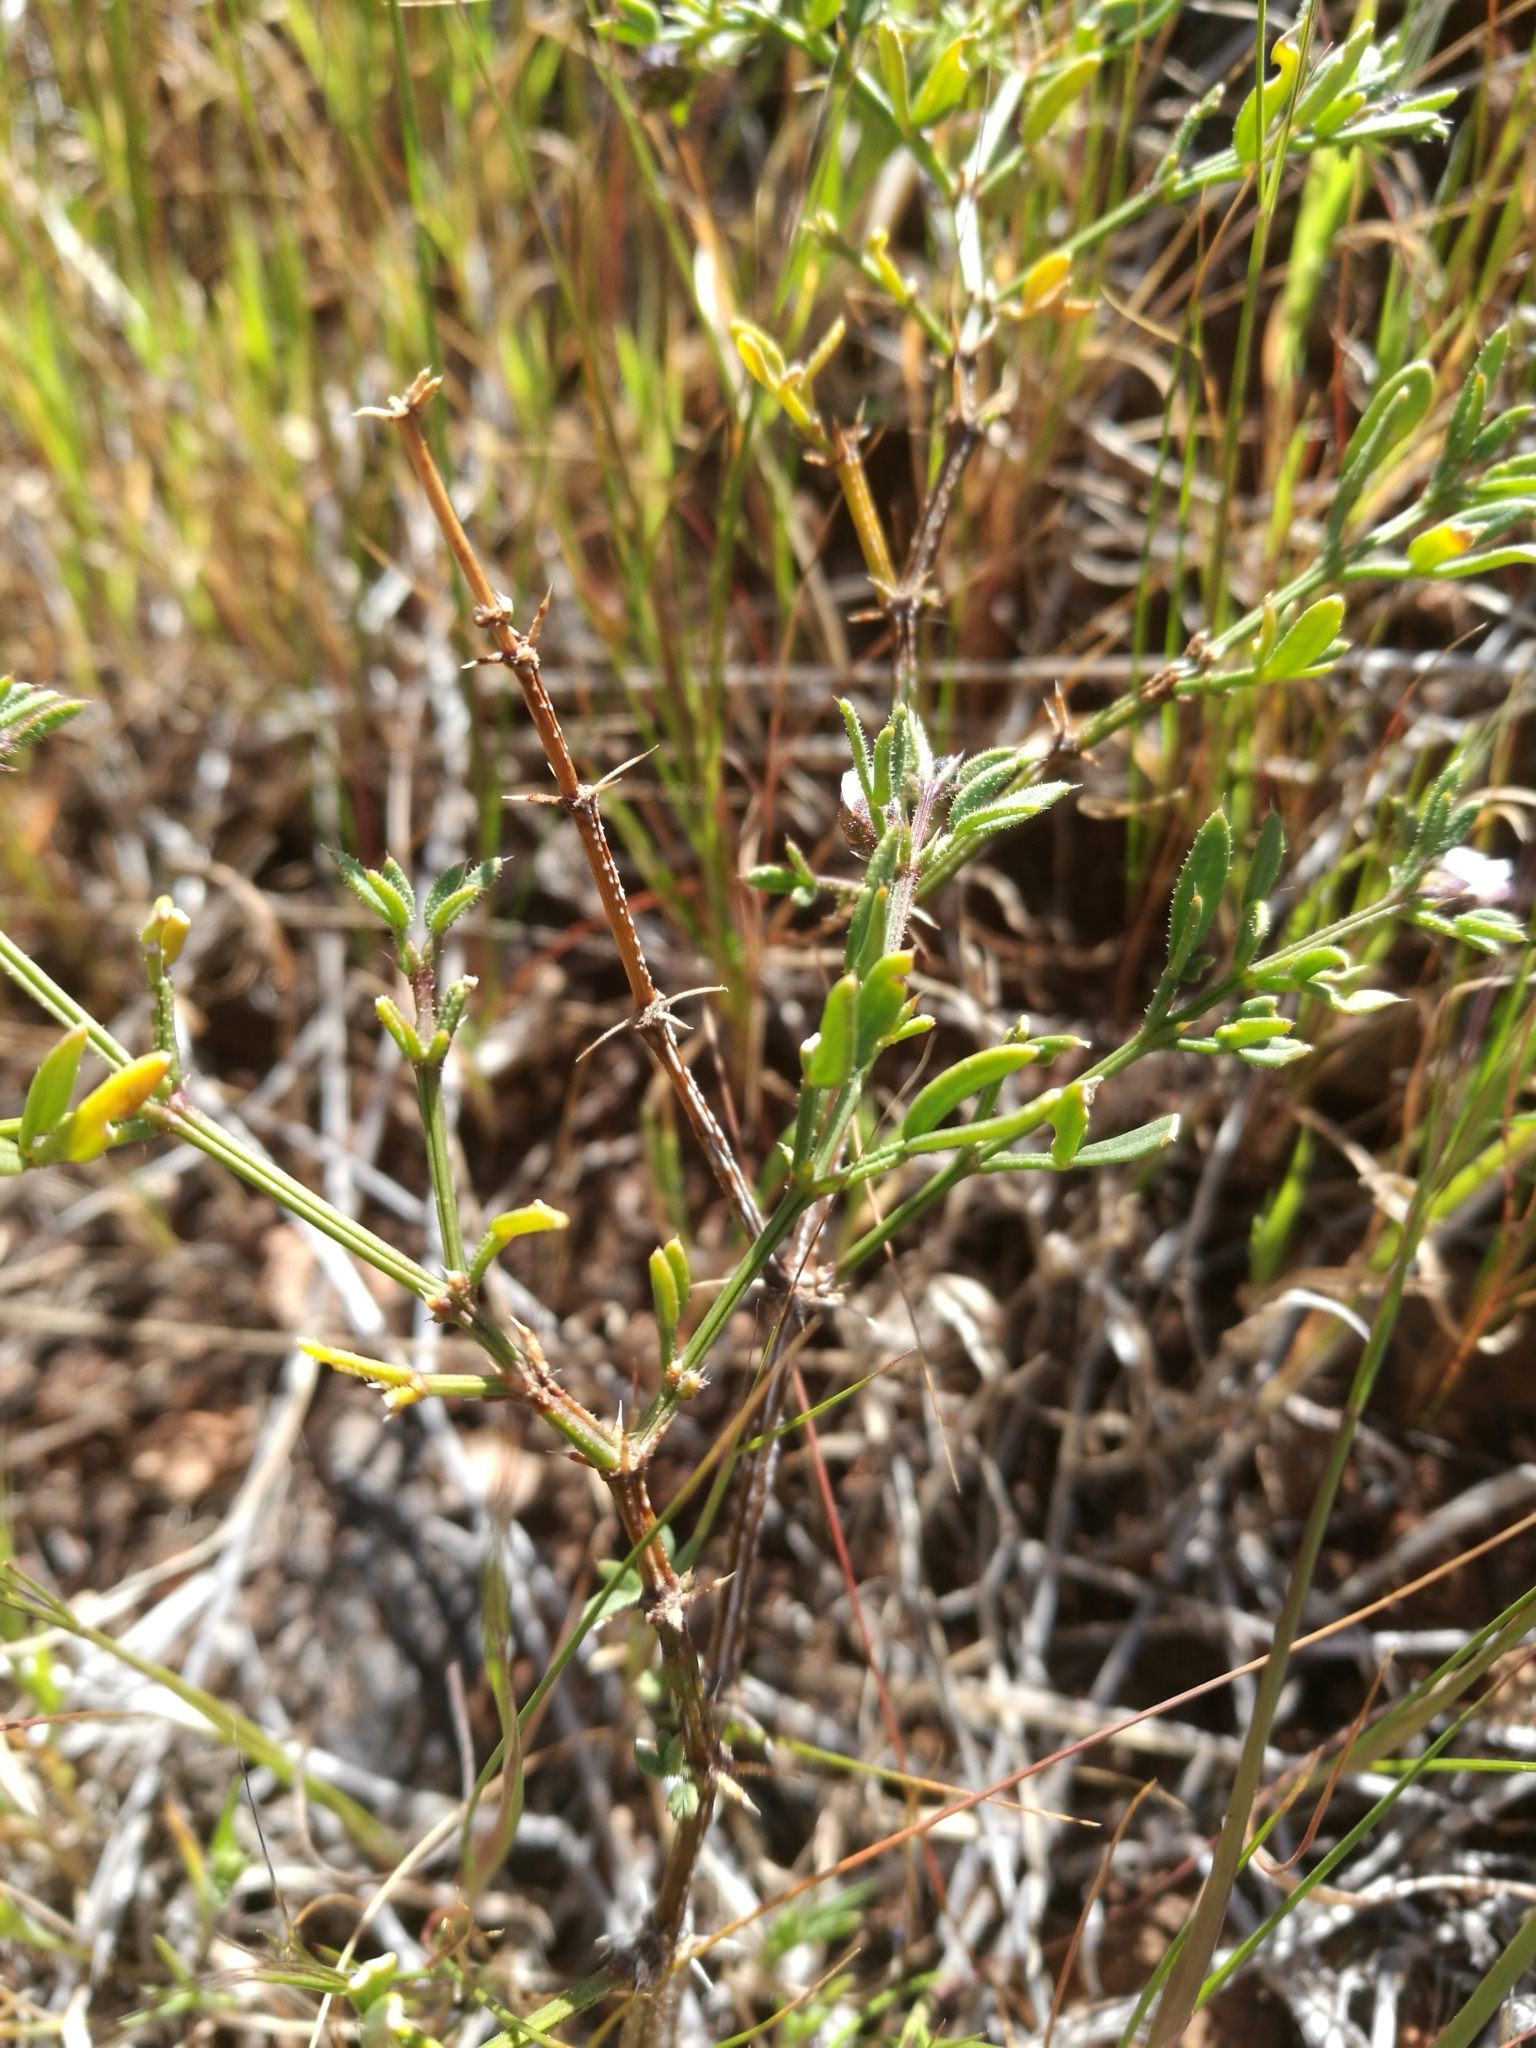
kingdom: Plantae
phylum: Tracheophyta
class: Magnoliopsida
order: Zygophyllales
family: Zygophyllaceae
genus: Fagonia
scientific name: Fagonia cretica
